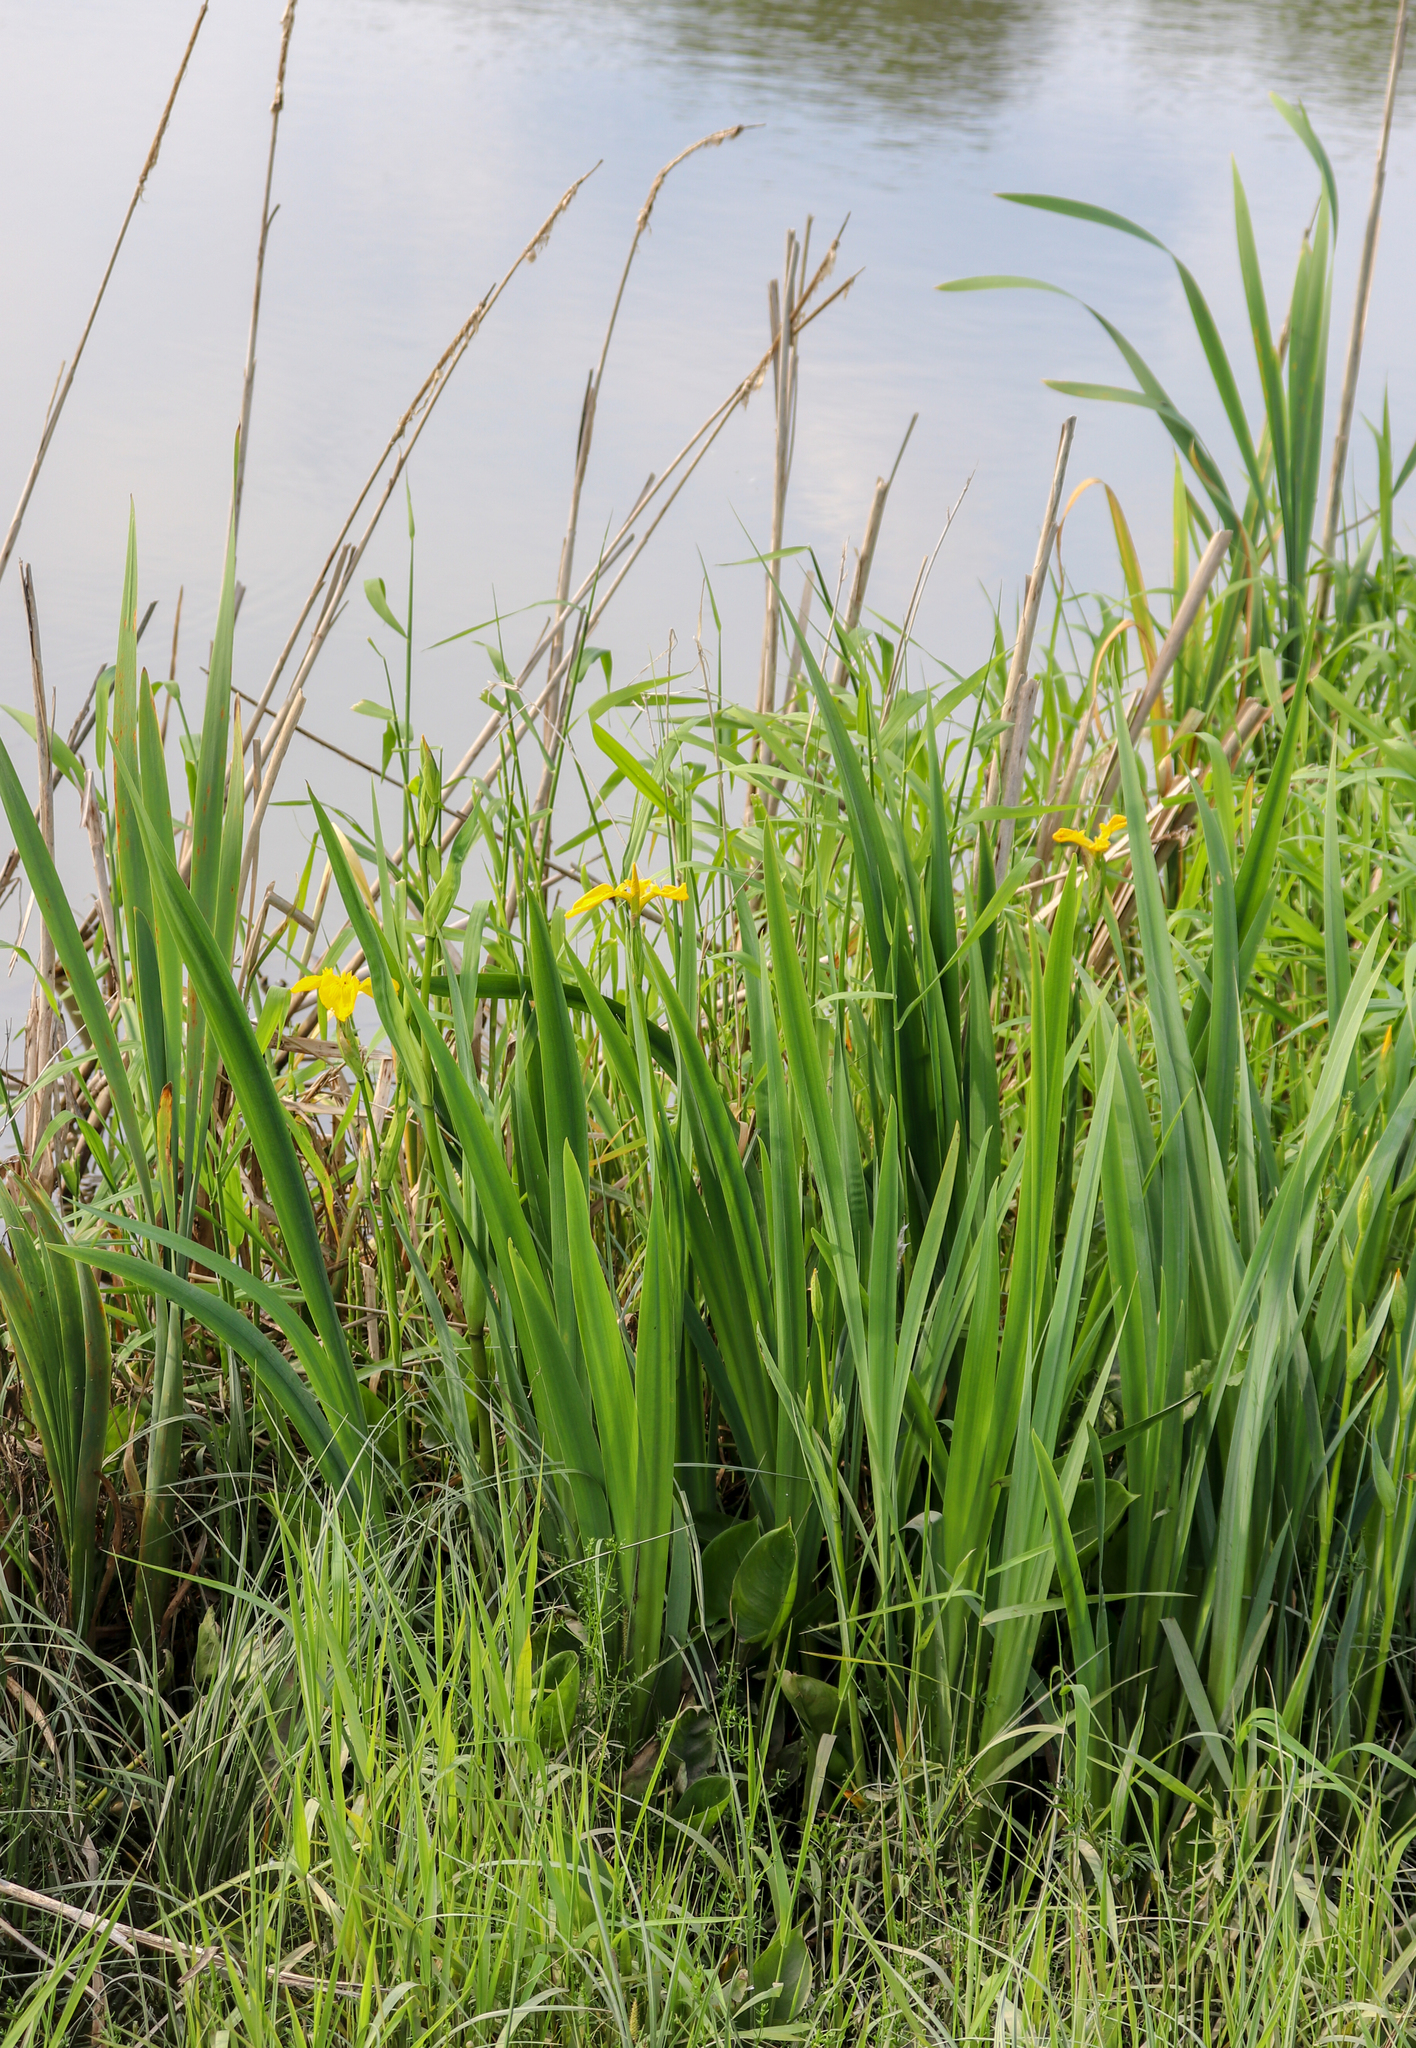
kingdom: Plantae
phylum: Tracheophyta
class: Liliopsida
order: Asparagales
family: Iridaceae
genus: Iris
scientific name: Iris pseudacorus
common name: Yellow flag
